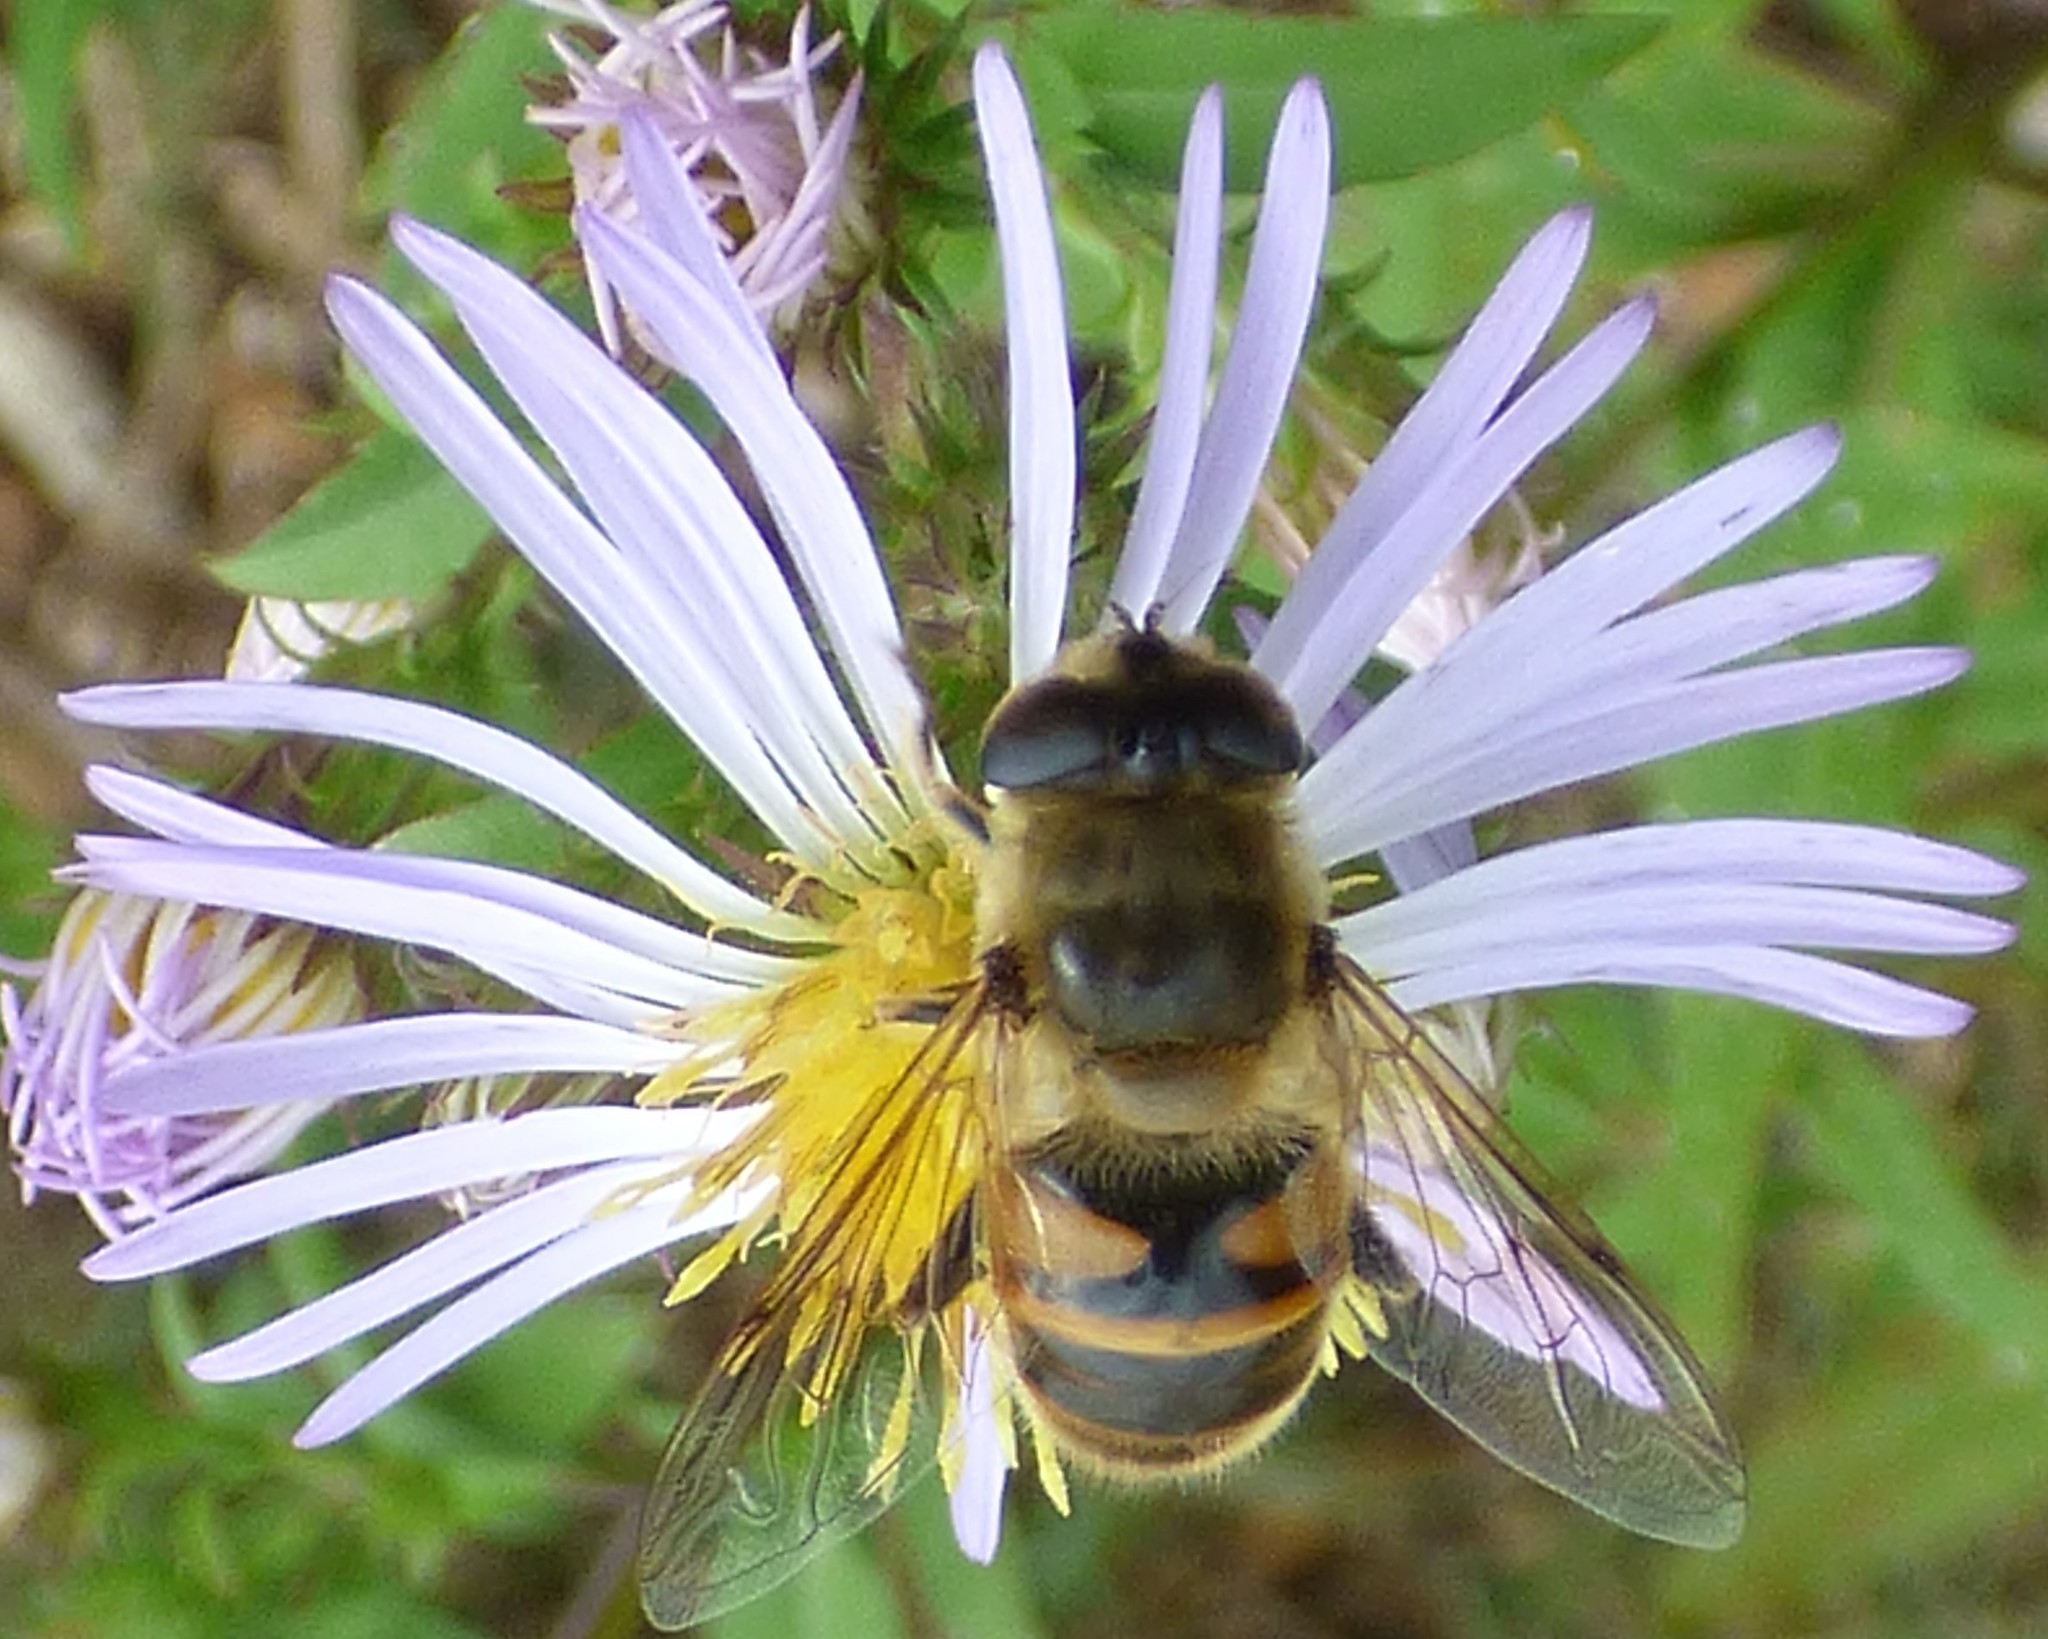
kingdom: Animalia
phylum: Arthropoda
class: Insecta
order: Diptera
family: Syrphidae
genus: Eristalis
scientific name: Eristalis tenax
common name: Drone fly
